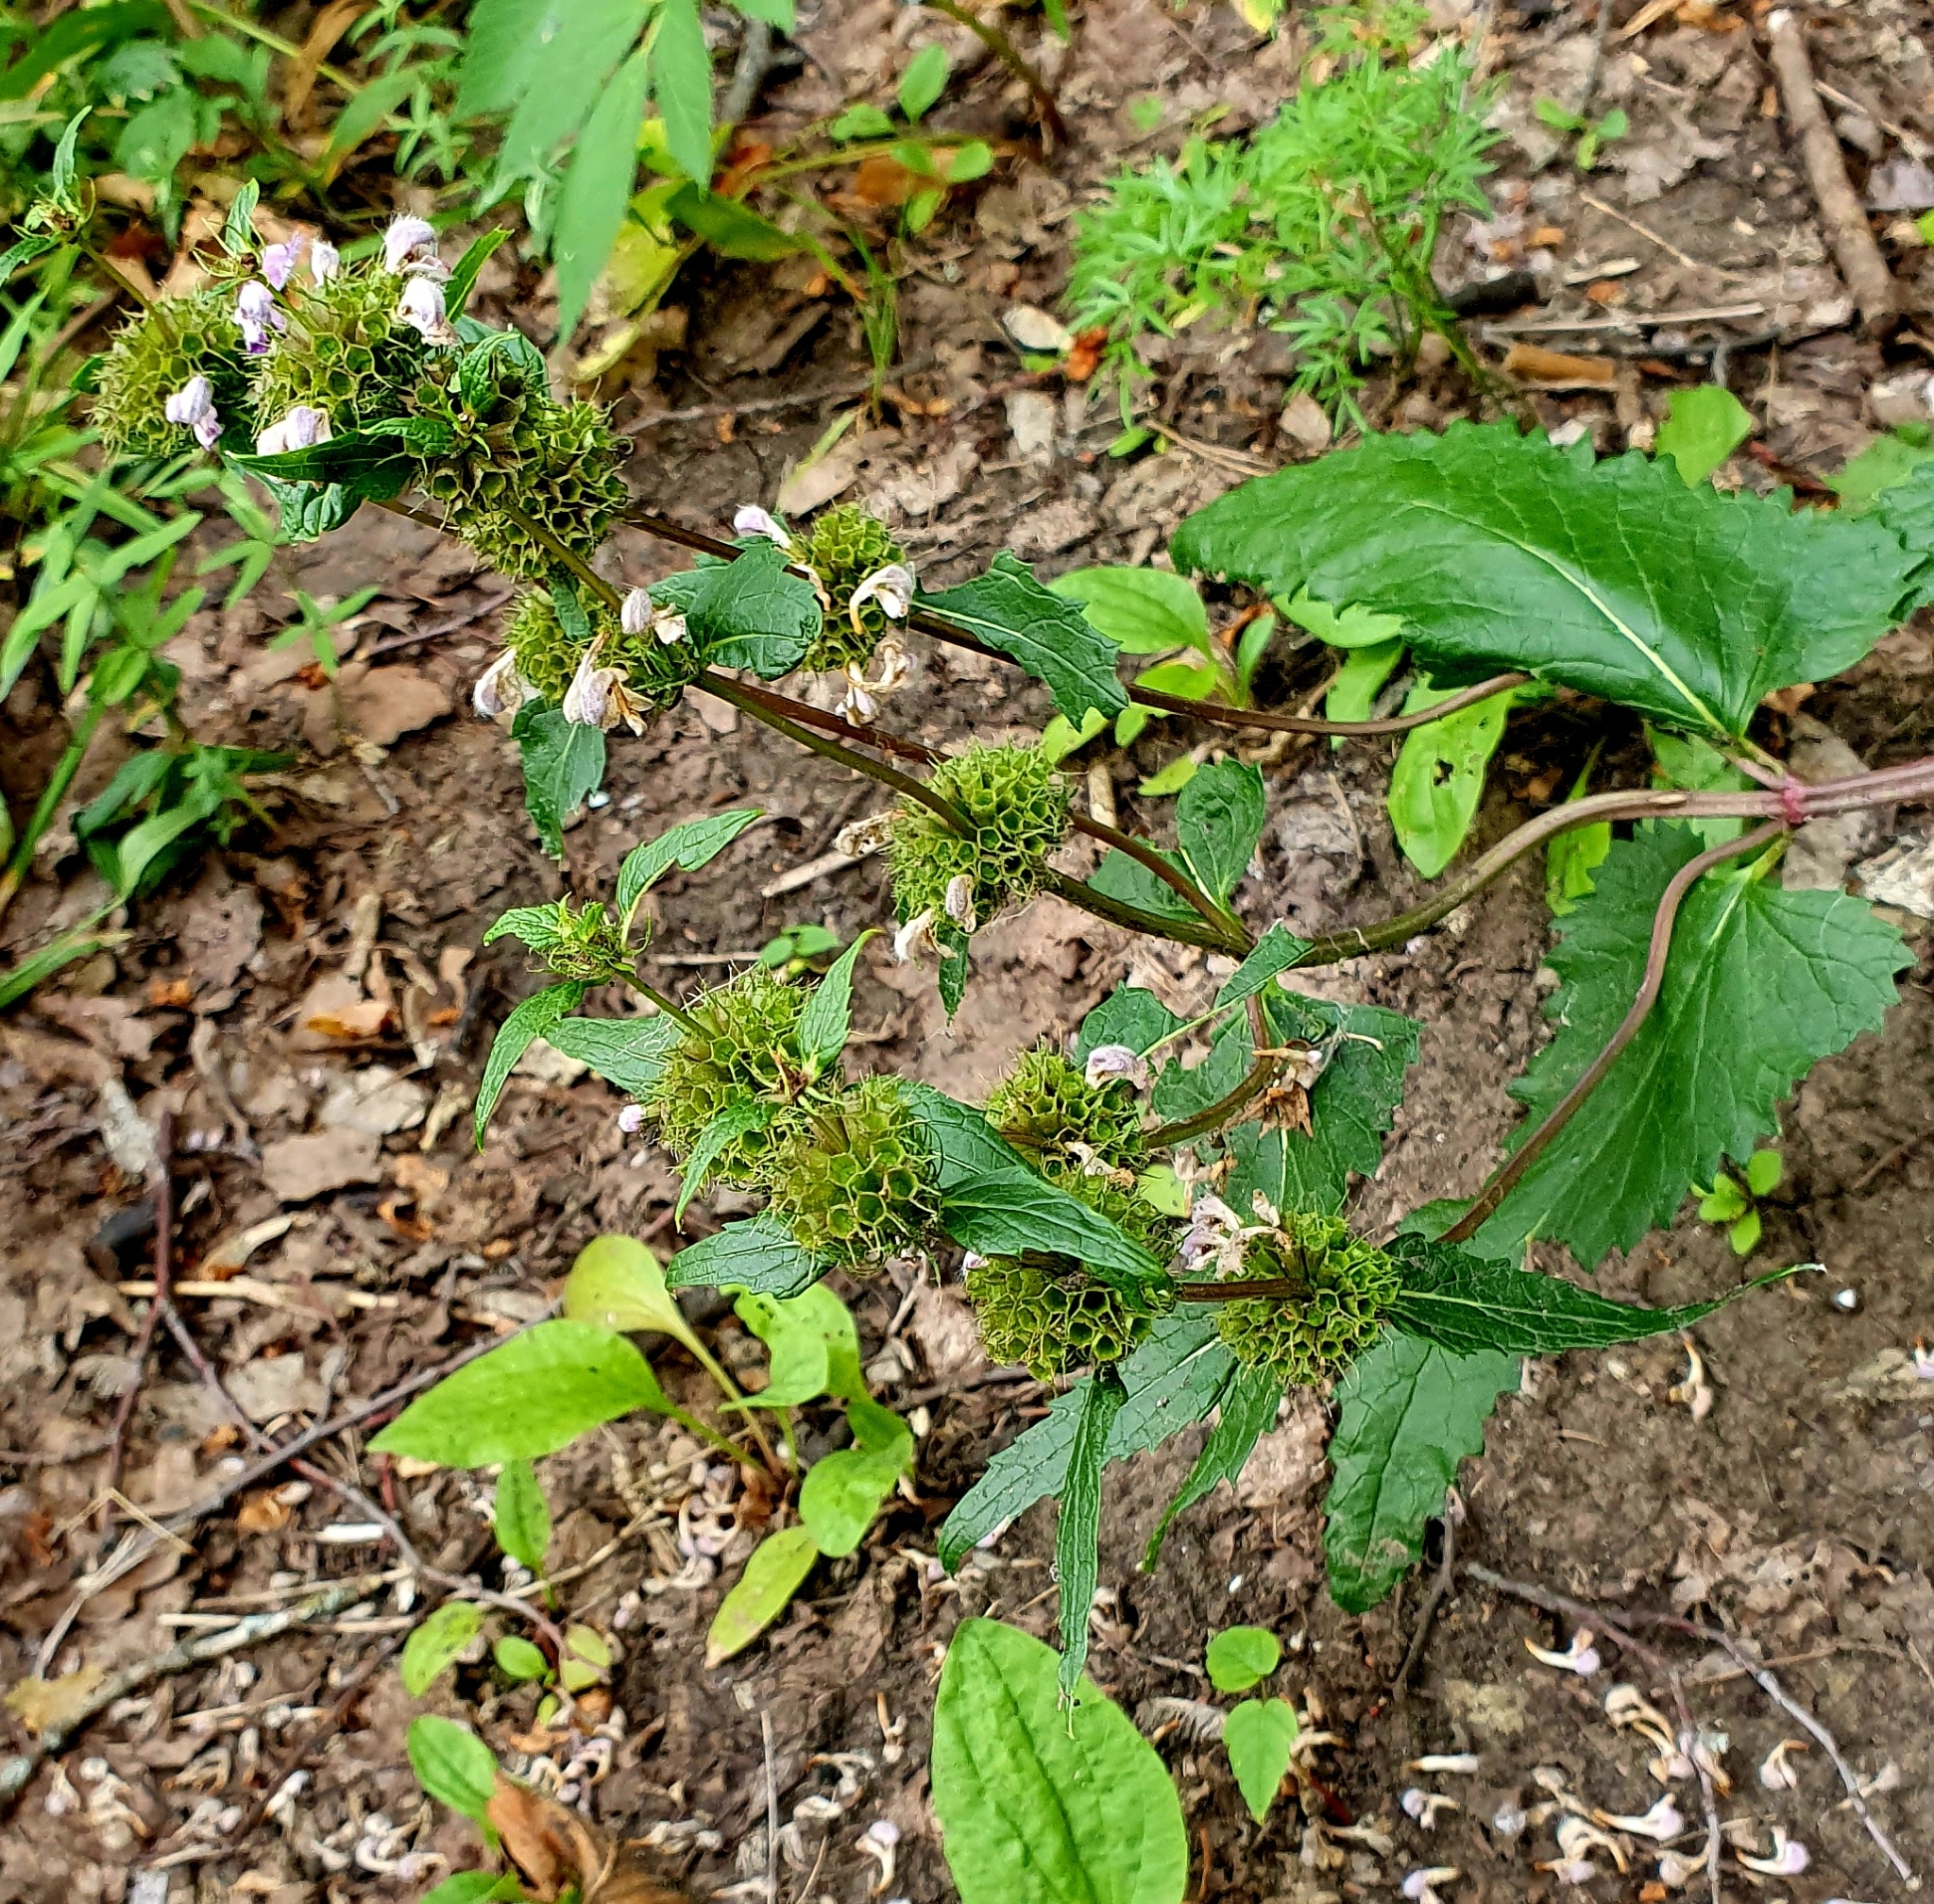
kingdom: Plantae
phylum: Tracheophyta
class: Magnoliopsida
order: Lamiales
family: Lamiaceae
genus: Phlomoides
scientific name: Phlomoides tuberosa
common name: Tuberous jerusalem sage
